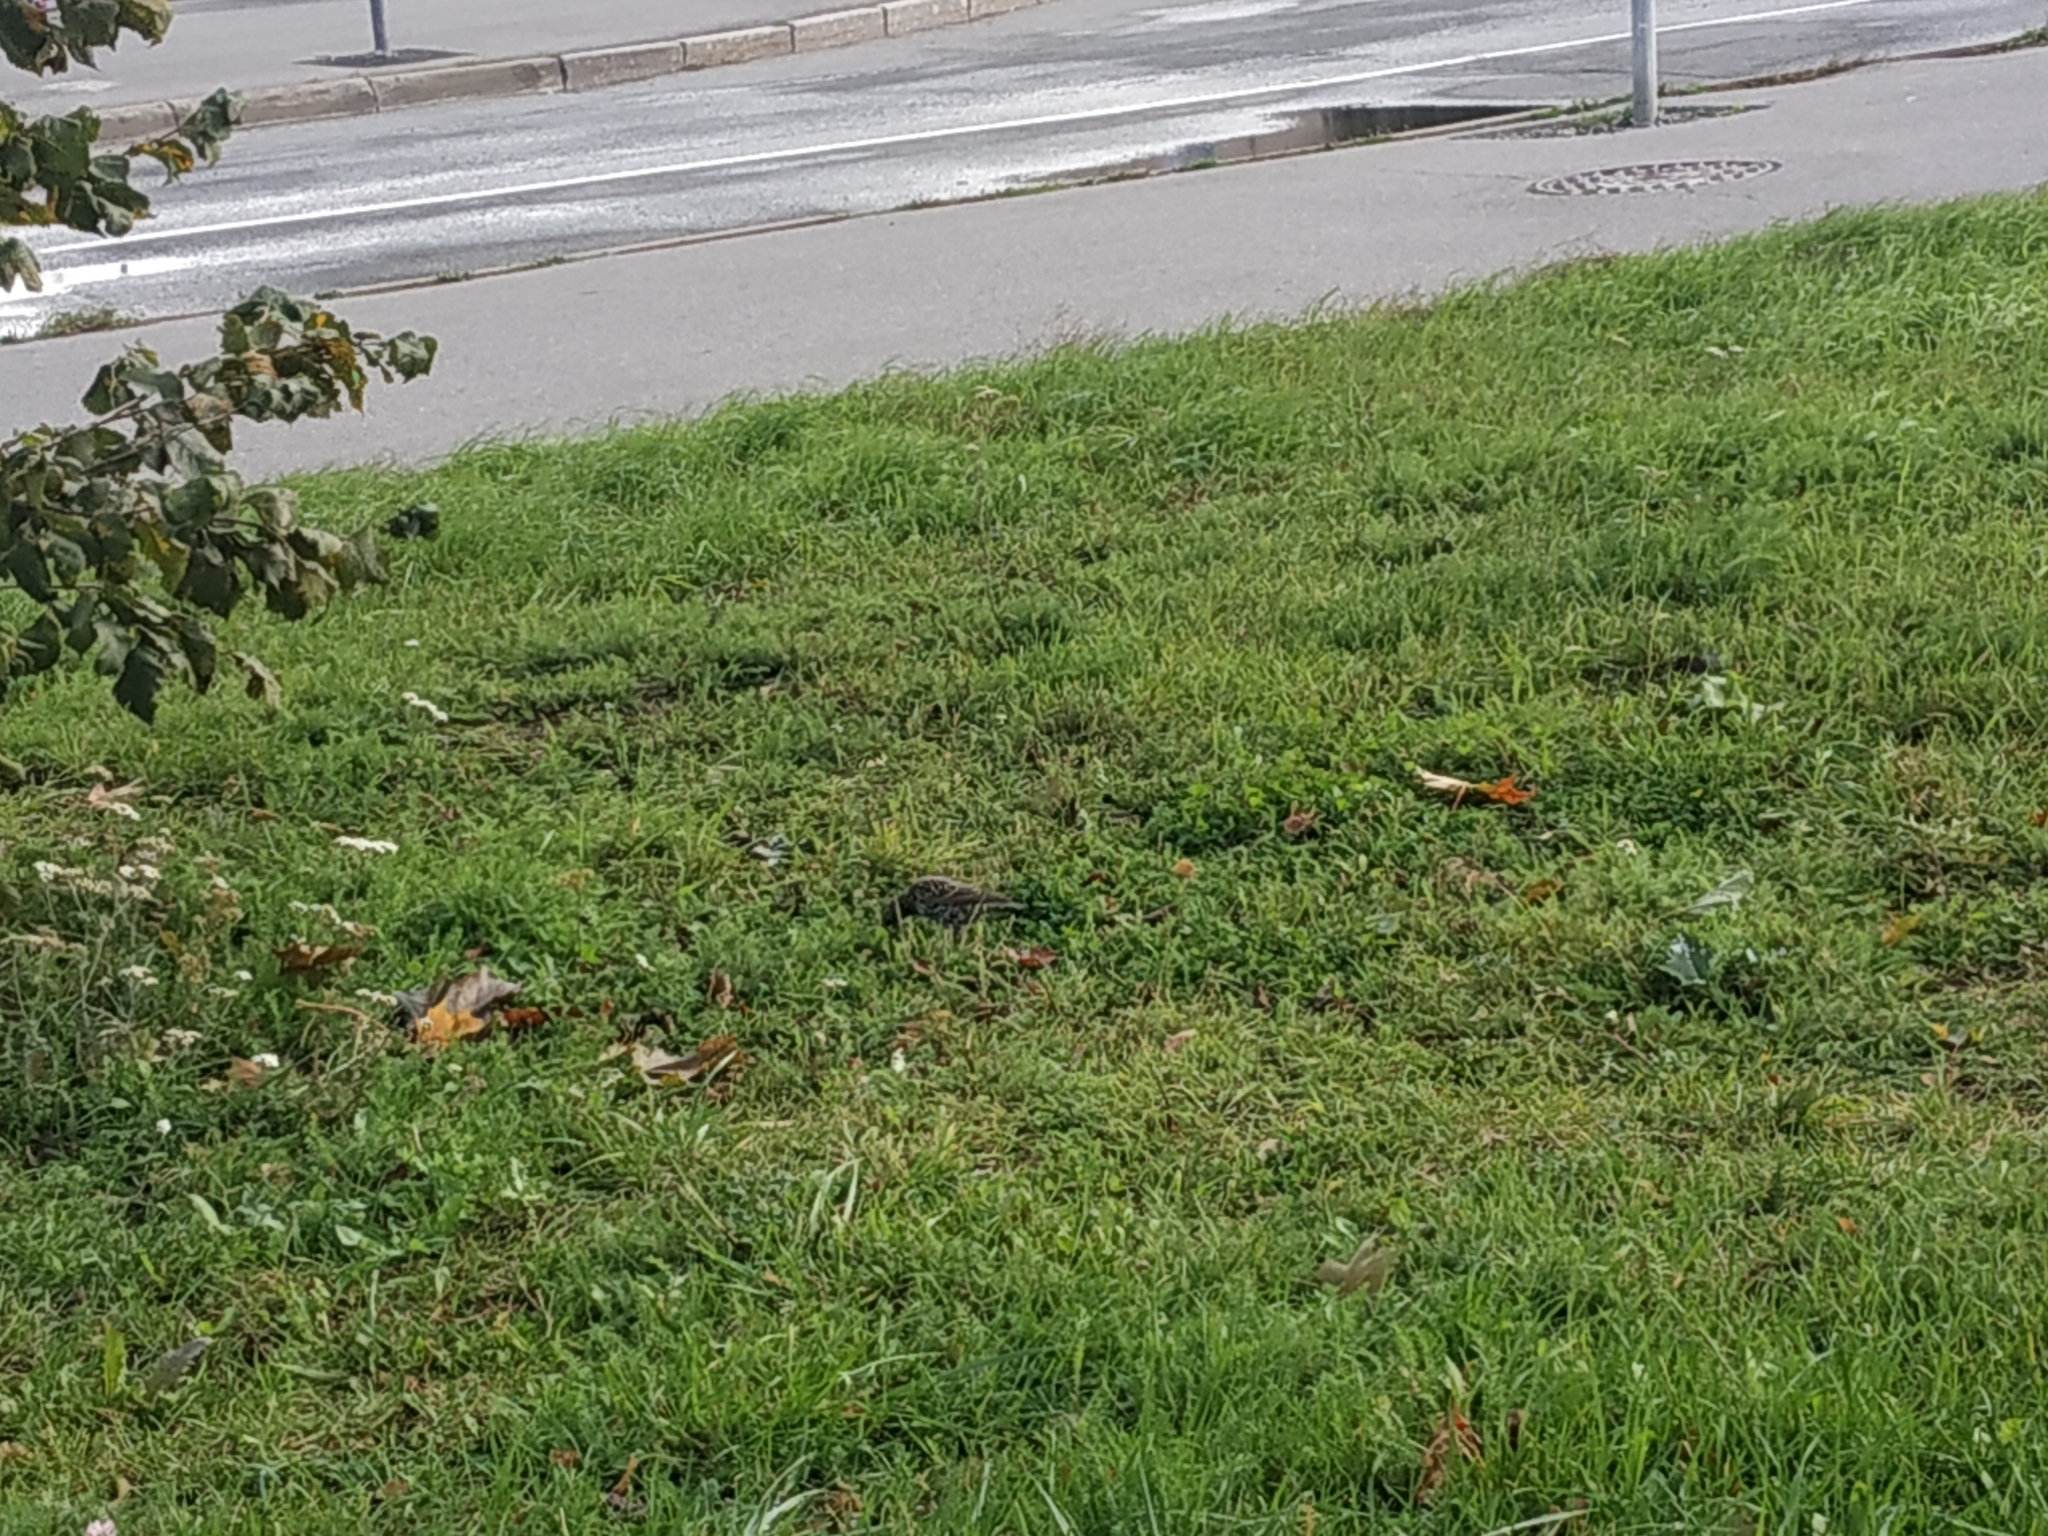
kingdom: Animalia
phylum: Chordata
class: Aves
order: Passeriformes
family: Sturnidae
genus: Sturnus
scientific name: Sturnus vulgaris
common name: Common starling
